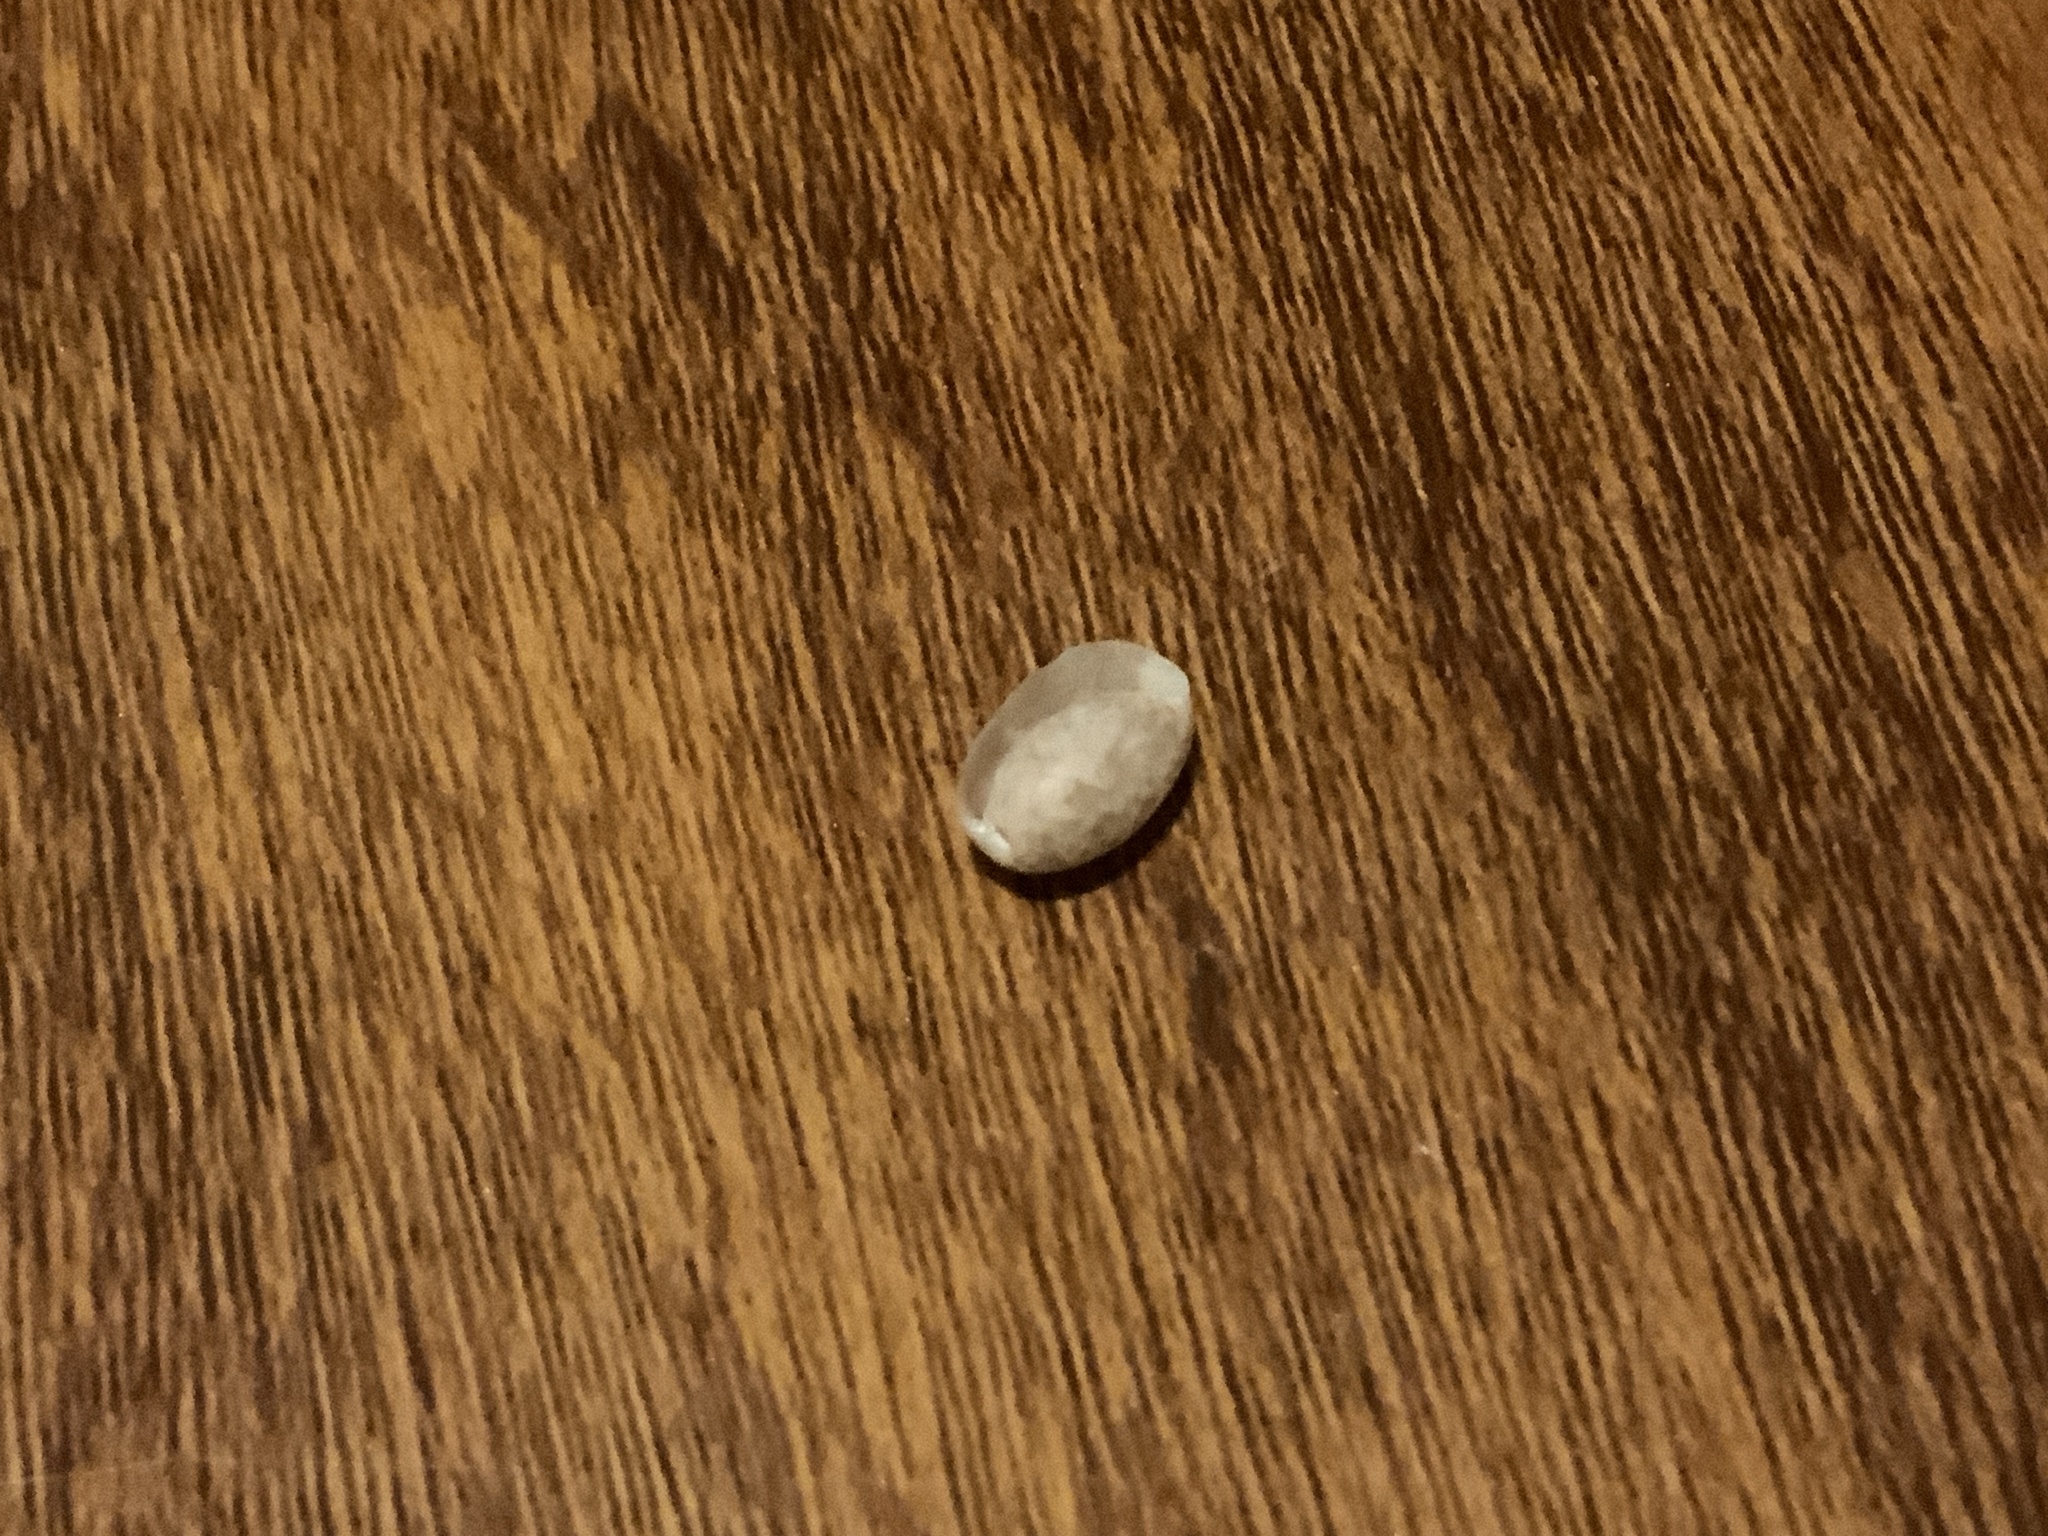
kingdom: Animalia
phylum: Mollusca
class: Gastropoda
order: Cephalaspidea
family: Bullidae
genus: Bulla
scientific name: Bulla occidentalis
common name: Common west-indian bubble
